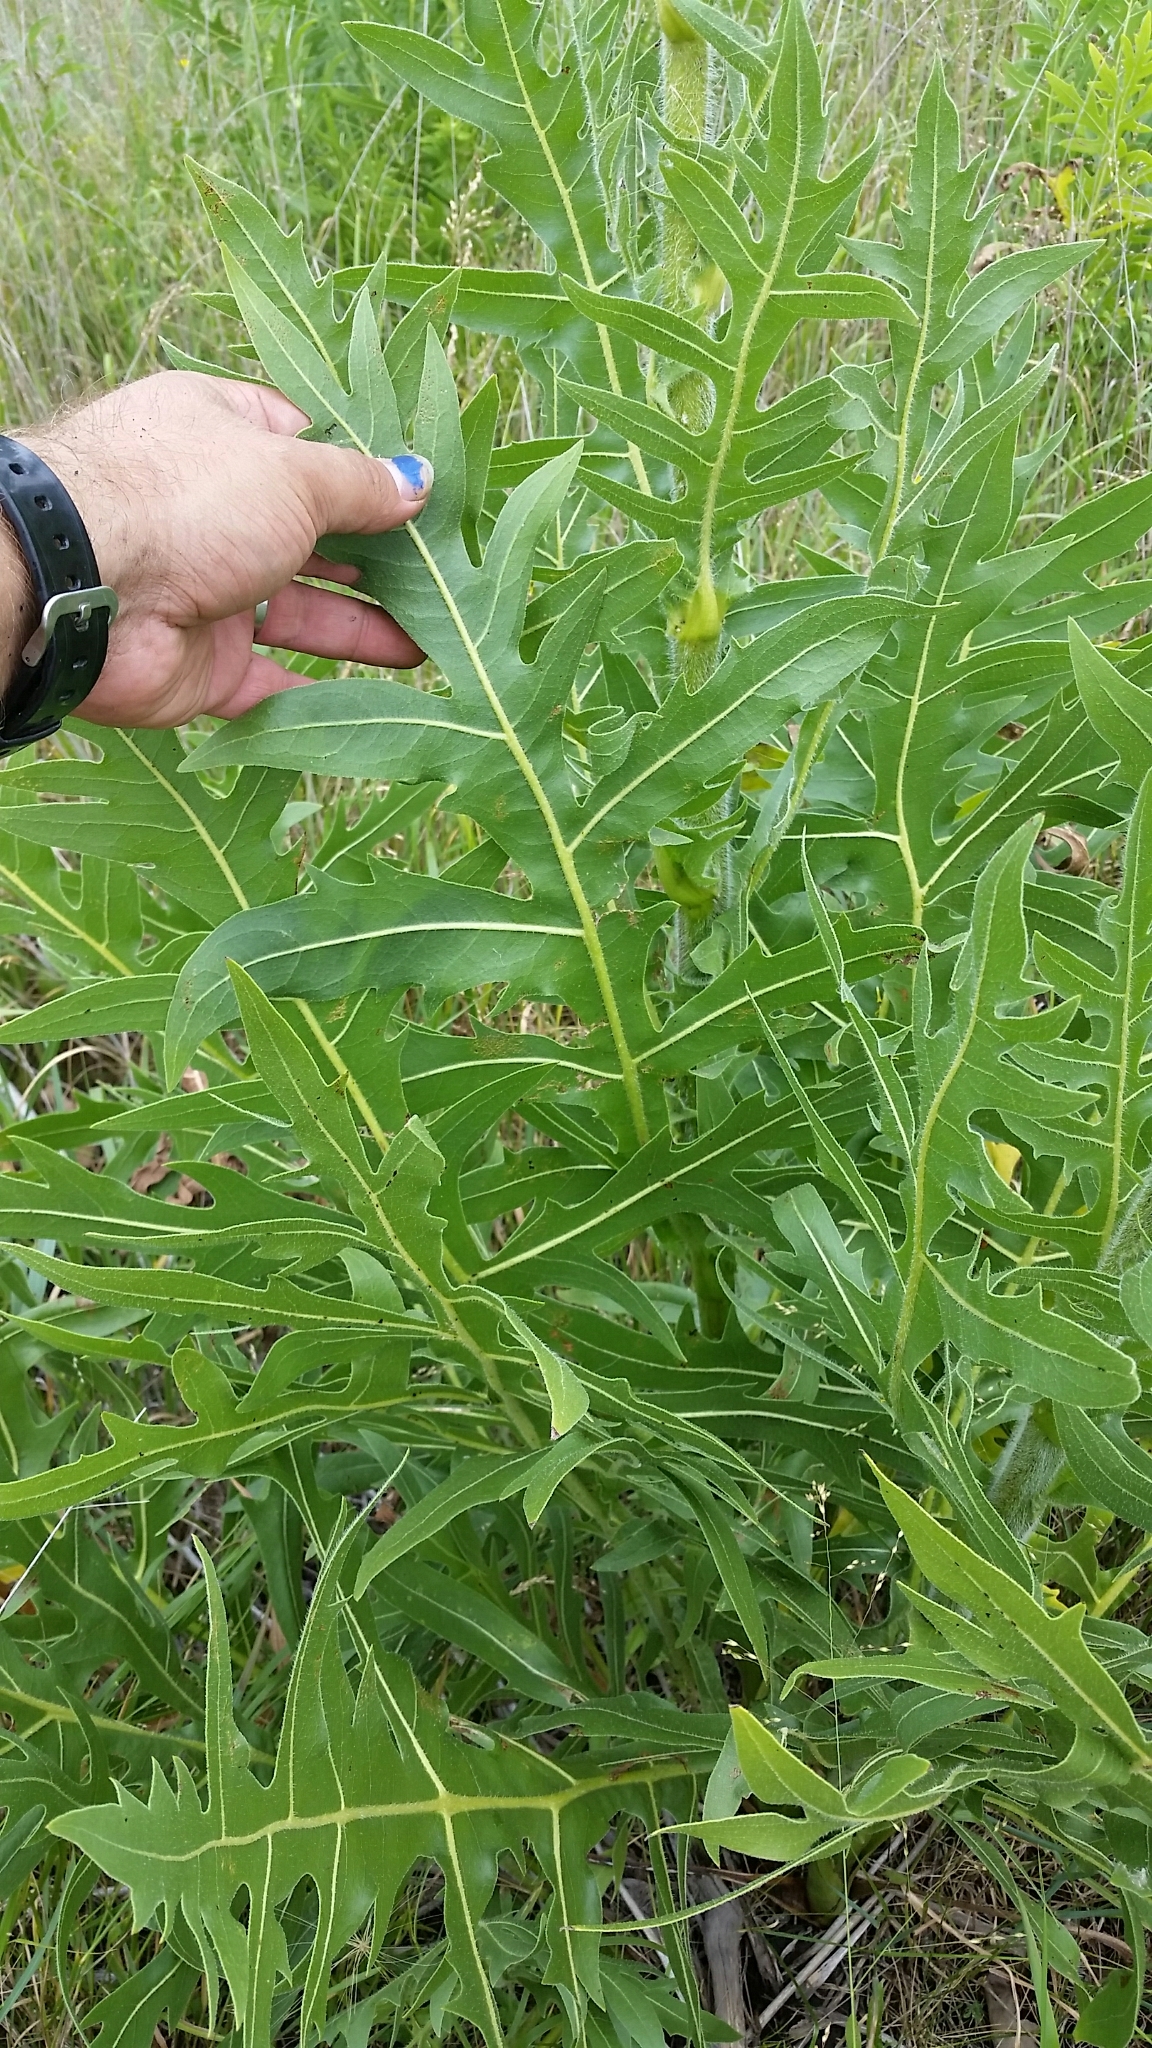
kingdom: Plantae
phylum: Tracheophyta
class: Magnoliopsida
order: Asterales
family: Asteraceae
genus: Silphium
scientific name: Silphium laciniatum
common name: Polarplant
